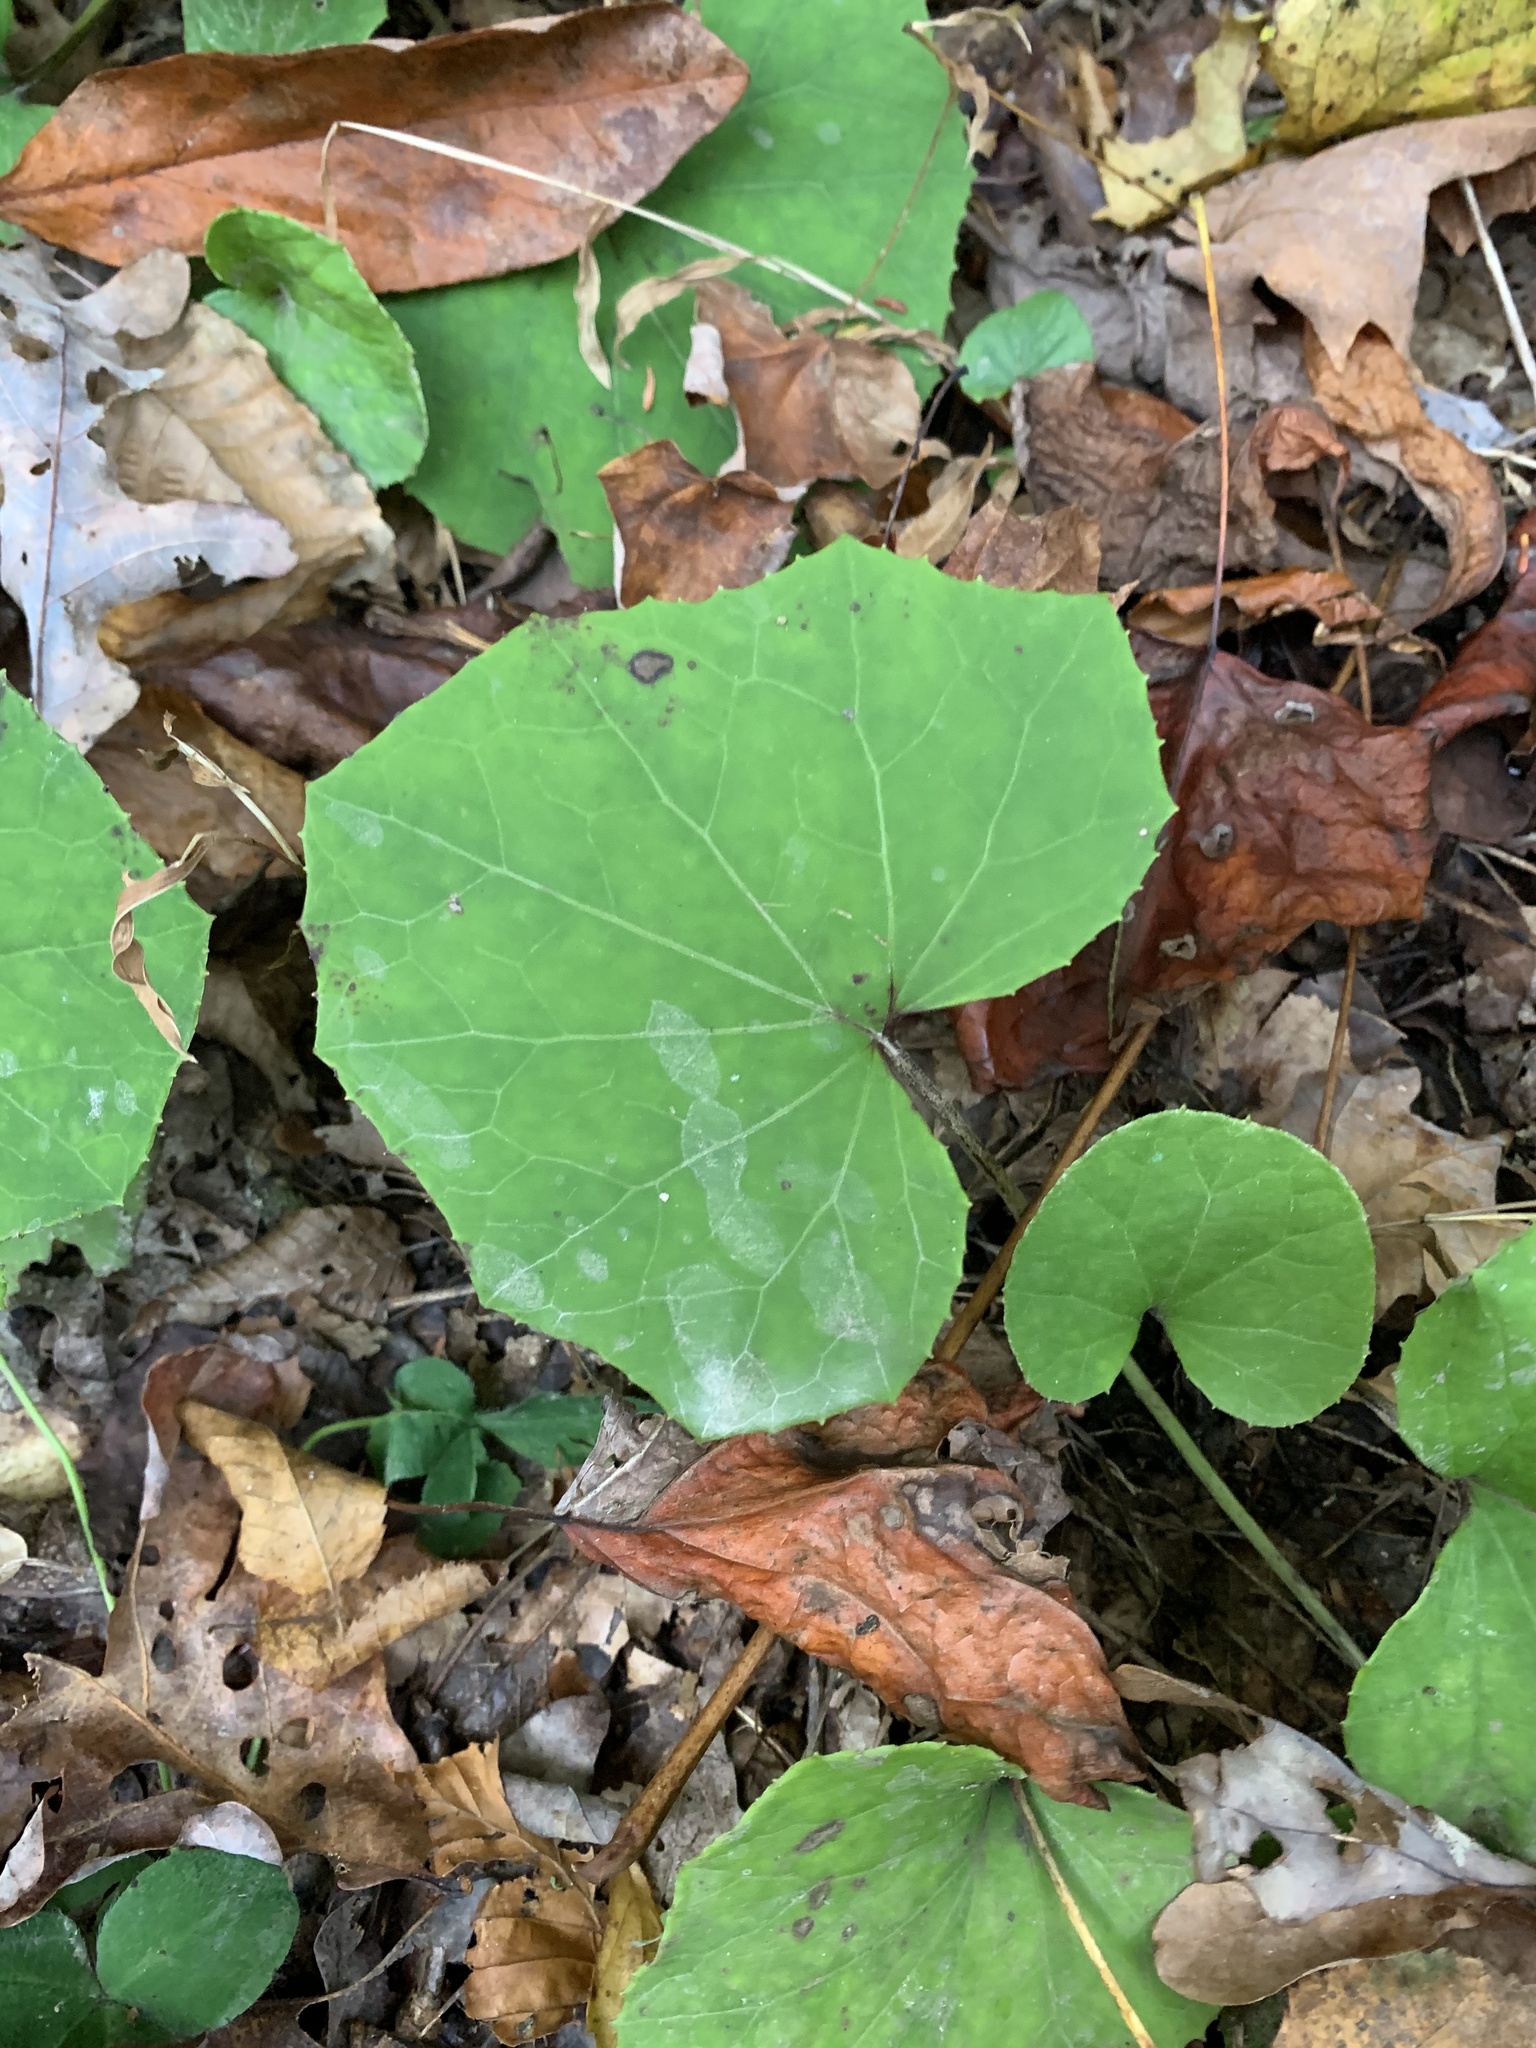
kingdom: Plantae
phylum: Tracheophyta
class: Magnoliopsida
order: Asterales
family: Asteraceae
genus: Tussilago
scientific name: Tussilago farfara
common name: Coltsfoot
